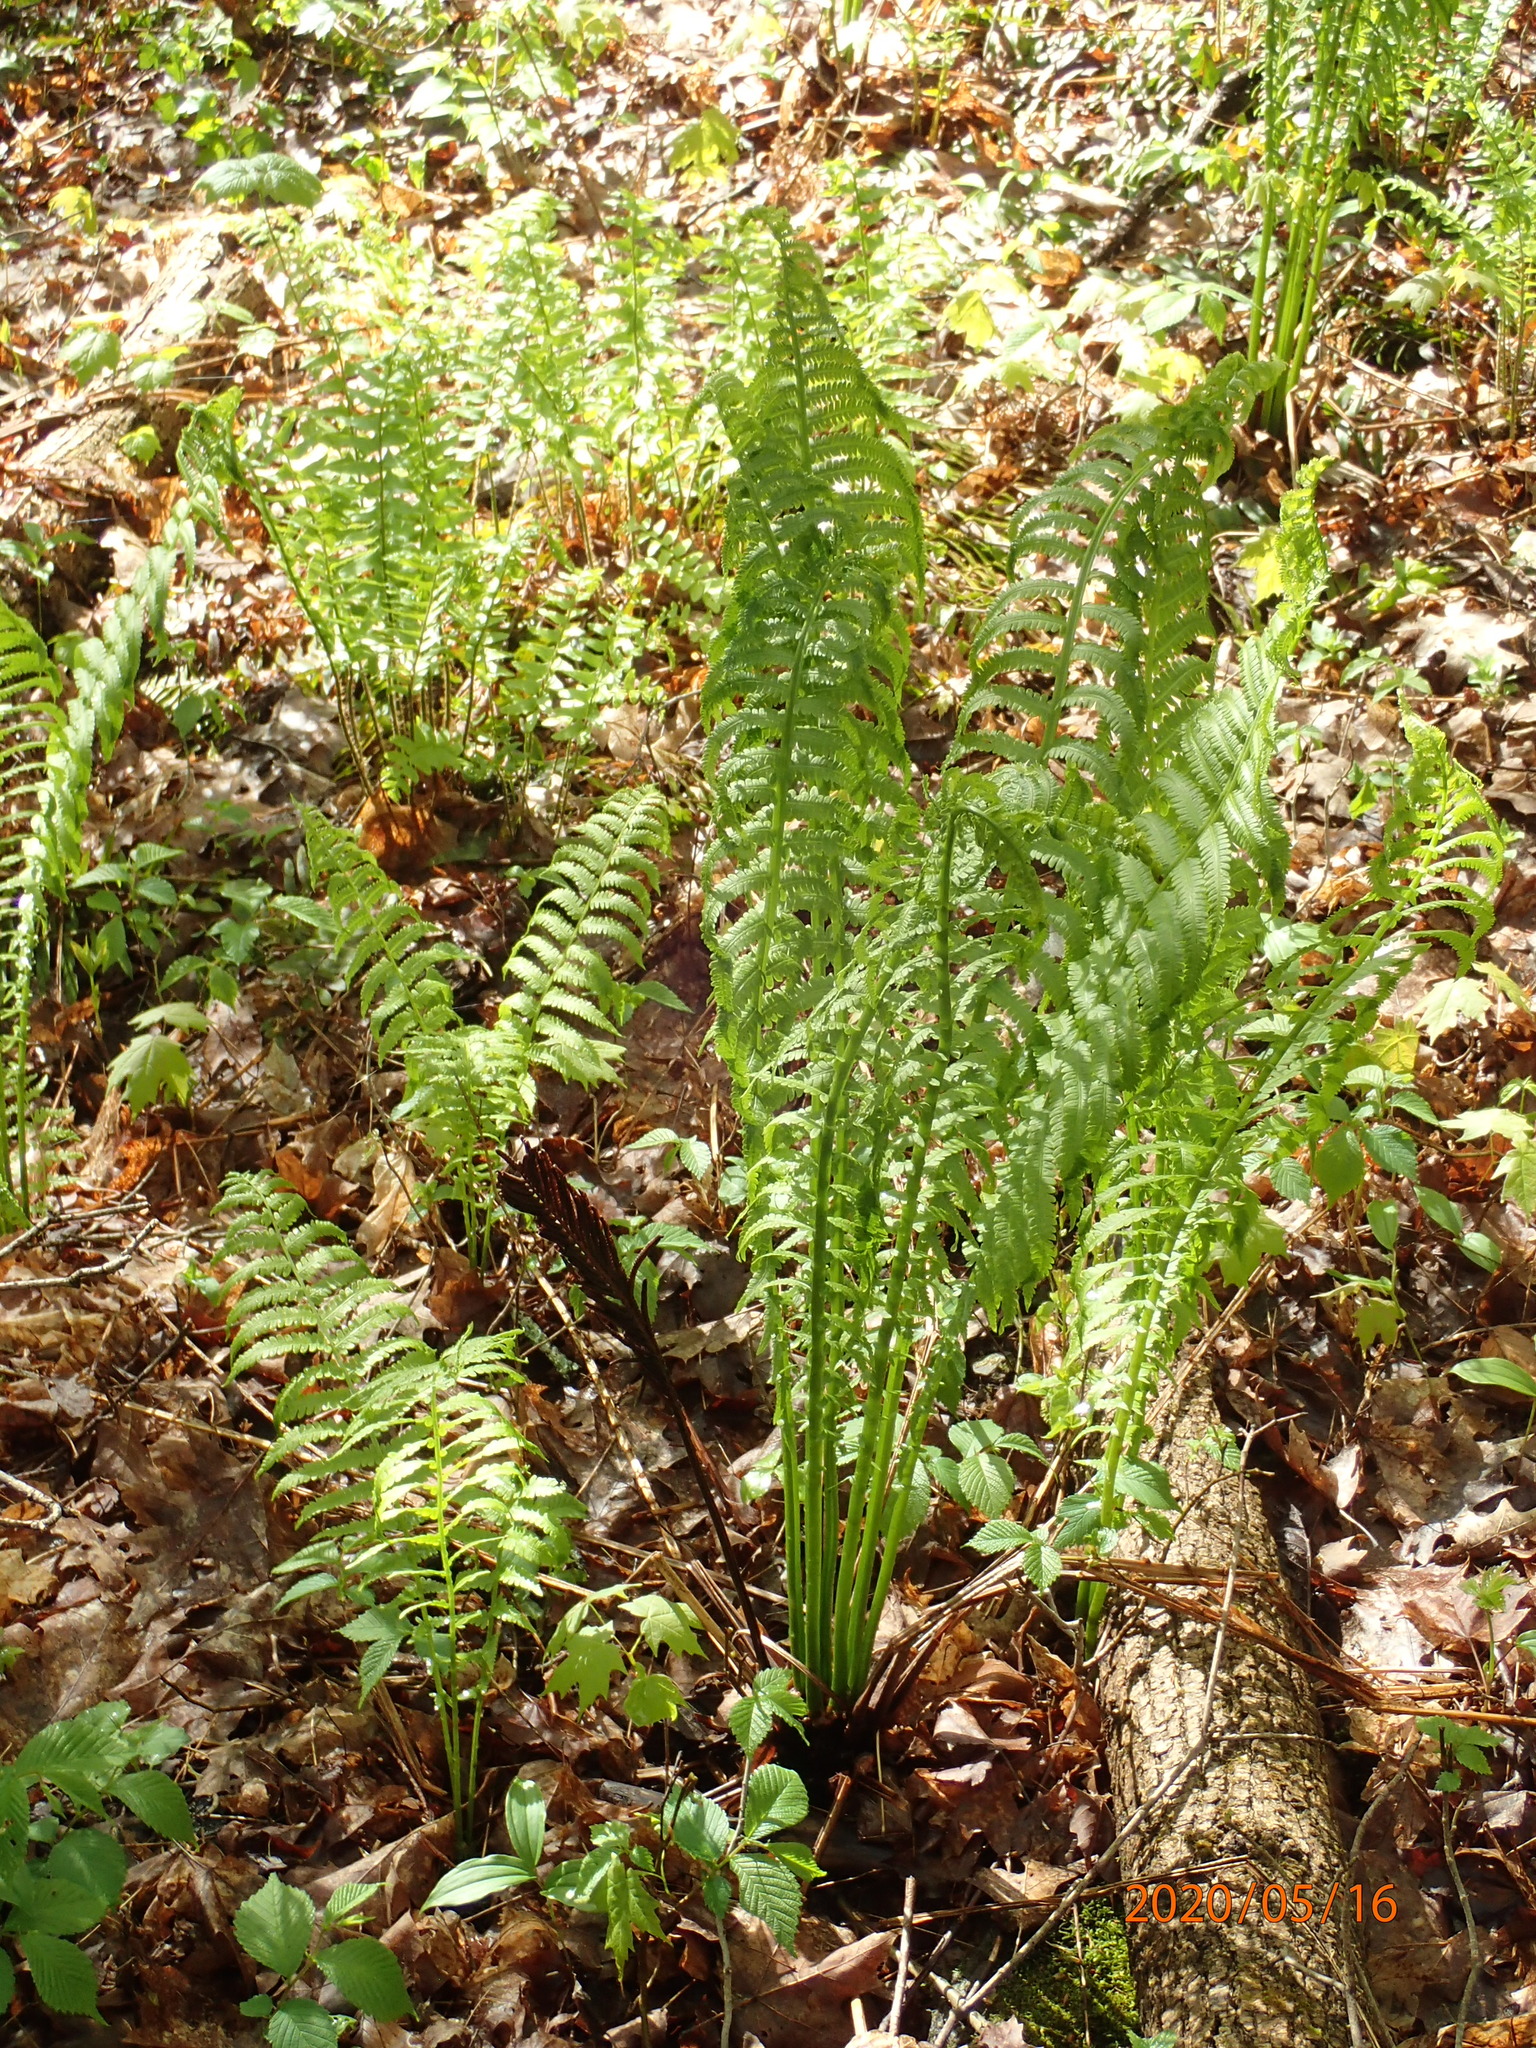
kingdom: Plantae
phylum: Tracheophyta
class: Polypodiopsida
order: Polypodiales
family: Onocleaceae
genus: Matteuccia
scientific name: Matteuccia struthiopteris
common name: Ostrich fern
